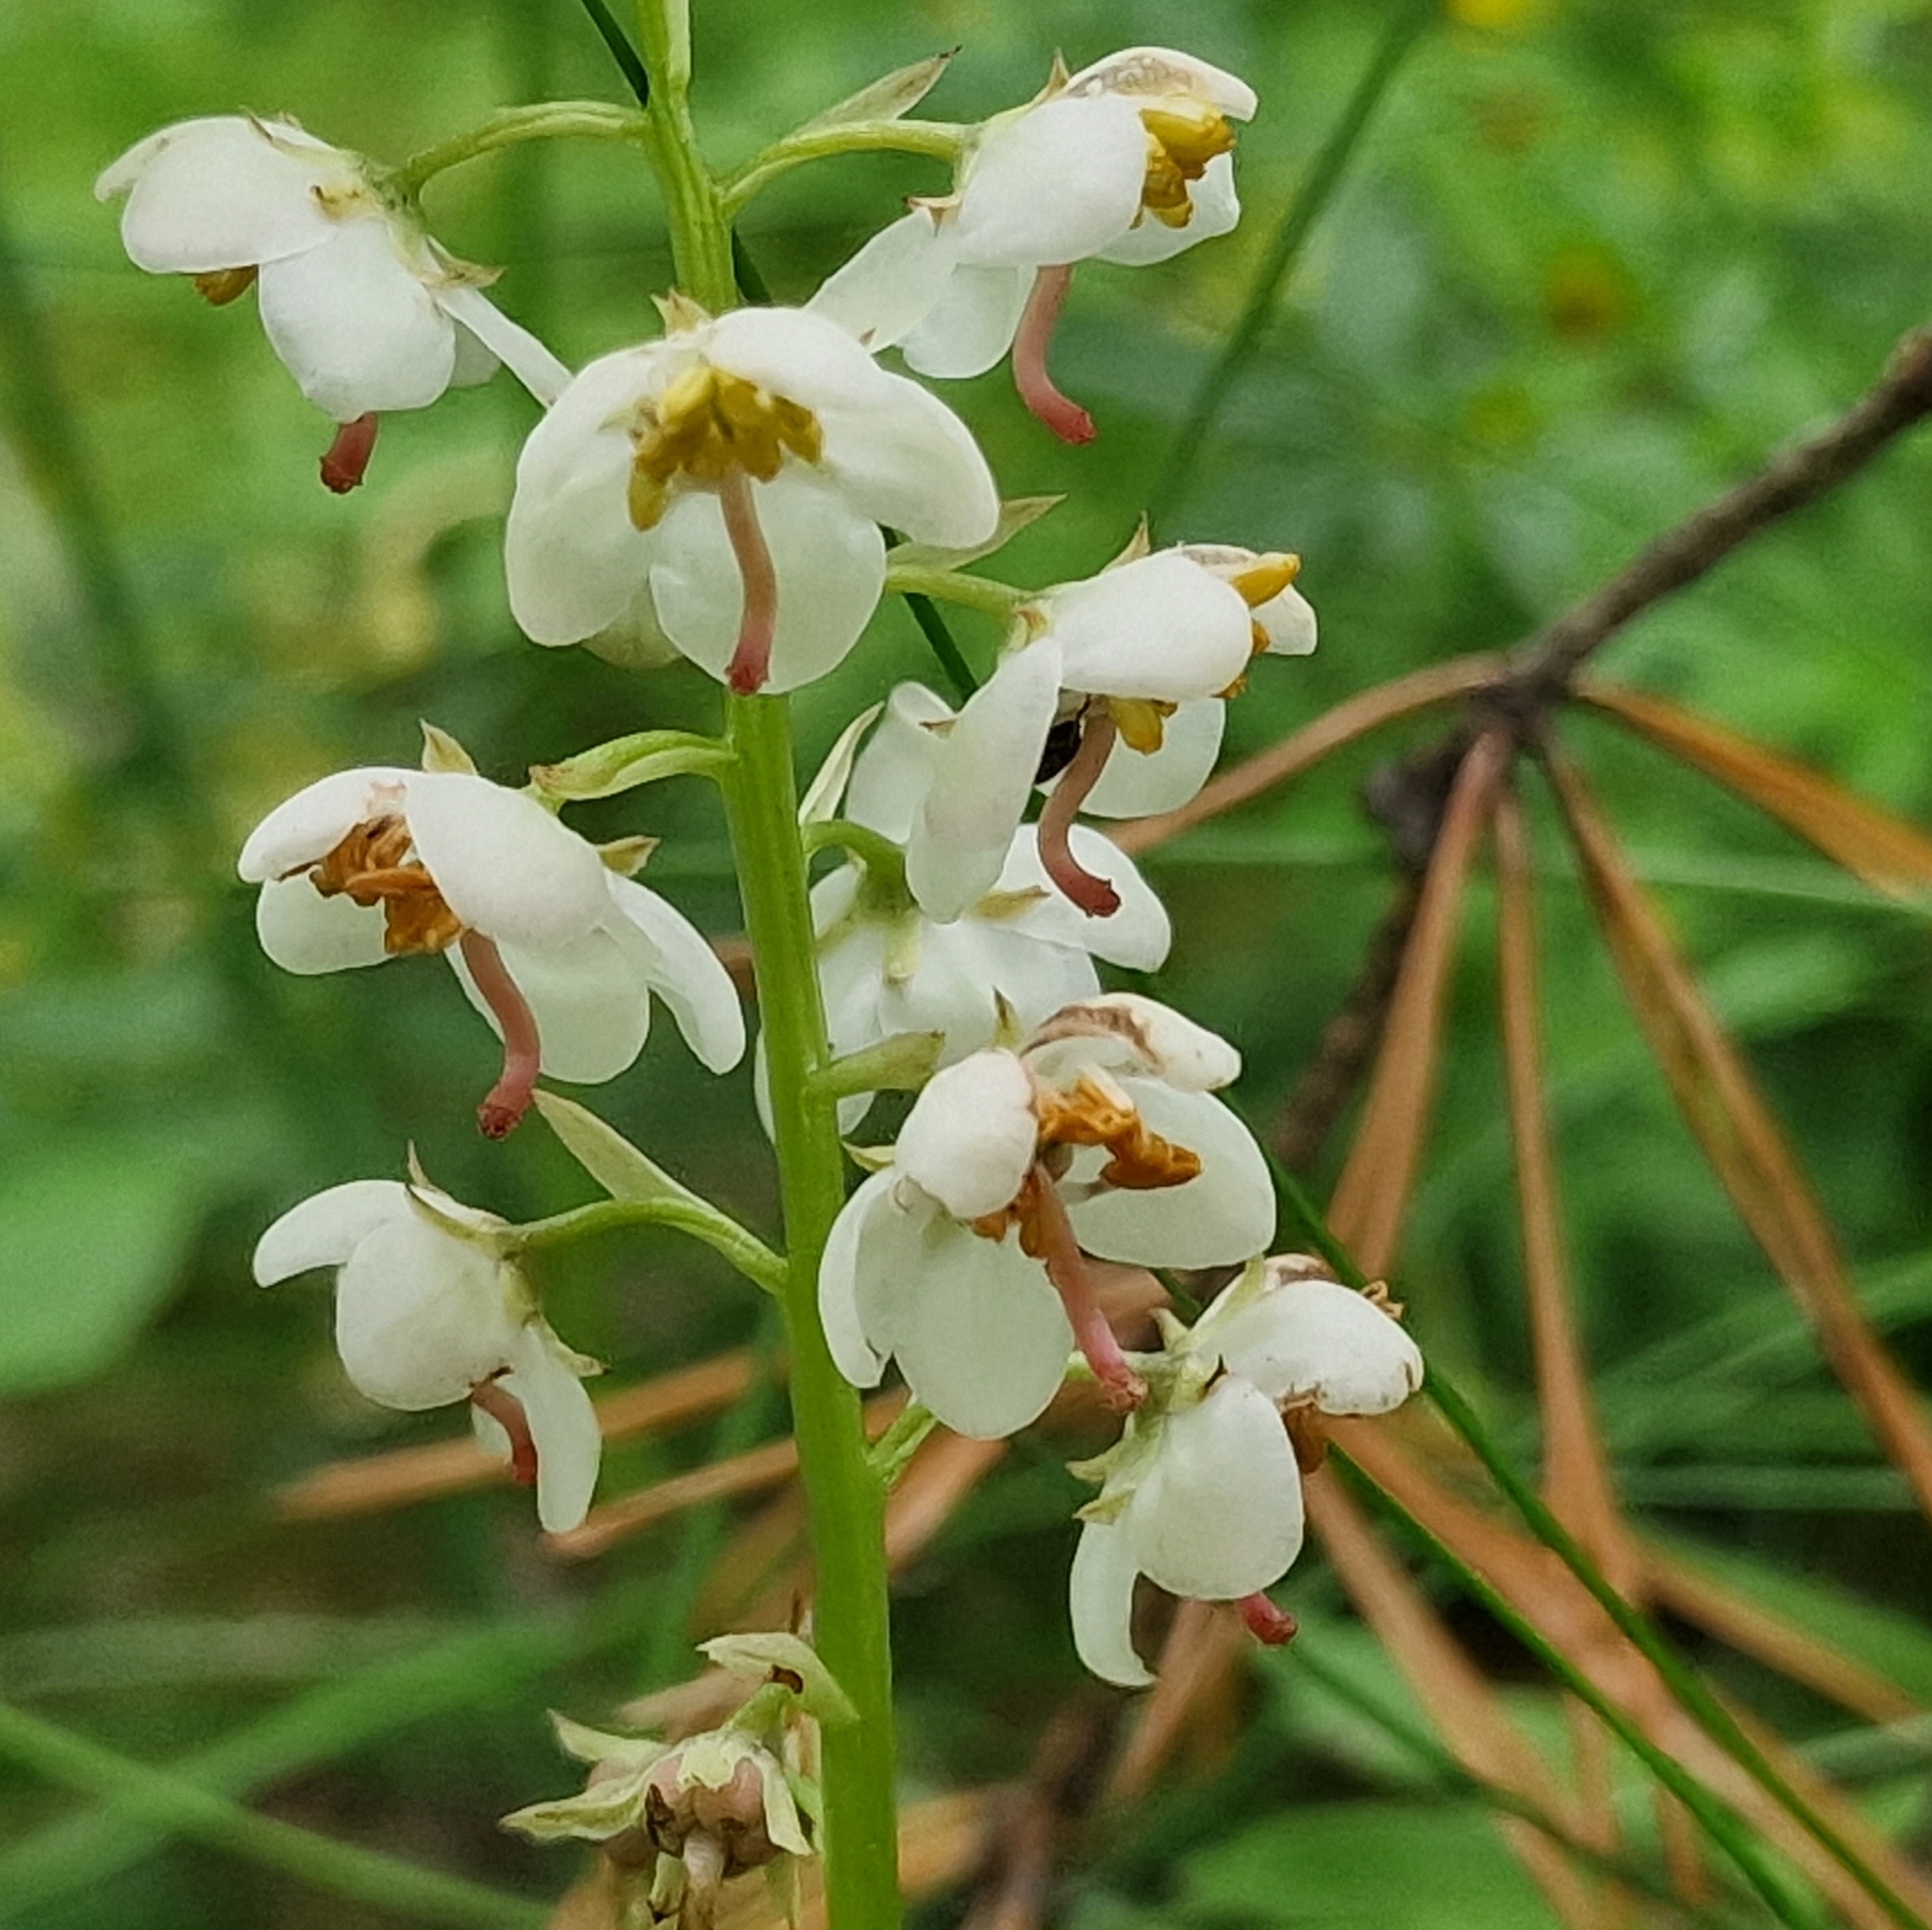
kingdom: Plantae
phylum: Tracheophyta
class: Magnoliopsida
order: Ericales
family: Ericaceae
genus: Pyrola
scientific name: Pyrola rotundifolia
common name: Round-leaved wintergreen
